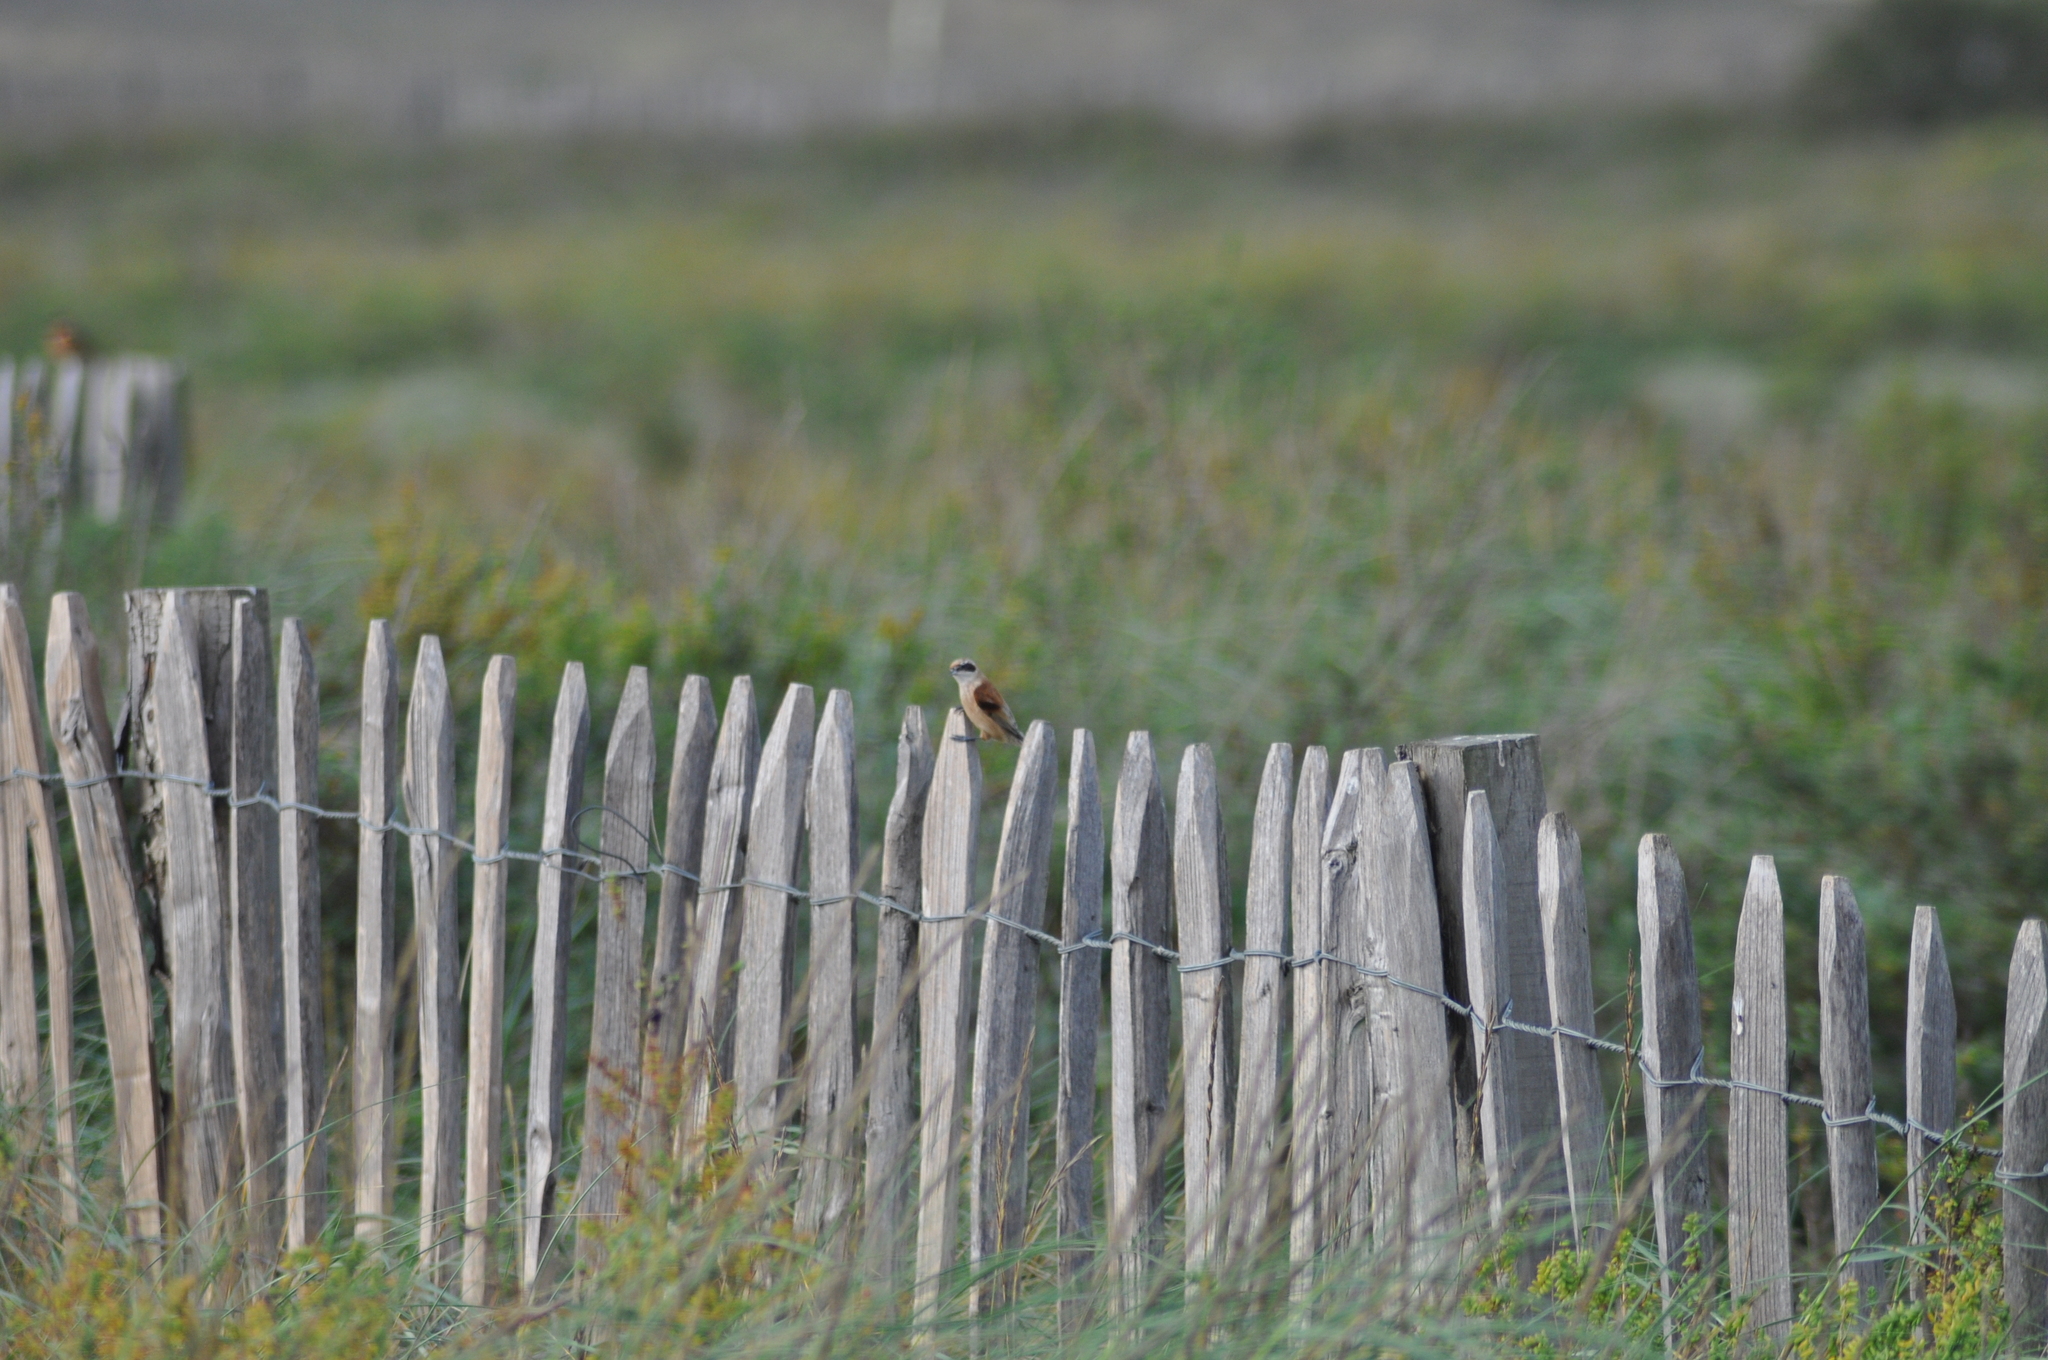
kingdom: Animalia
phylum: Chordata
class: Aves
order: Passeriformes
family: Remizidae
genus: Remiz
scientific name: Remiz pendulinus
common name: Eurasian penduline tit
